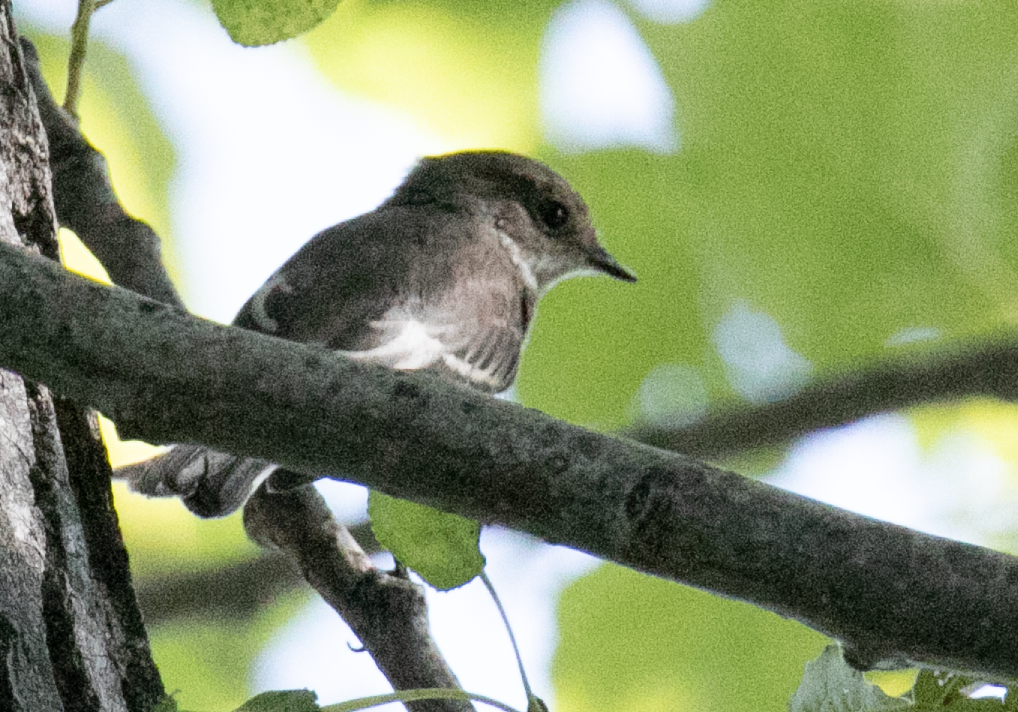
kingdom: Animalia
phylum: Chordata
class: Aves
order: Passeriformes
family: Muscicapidae
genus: Ficedula
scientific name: Ficedula hypoleuca
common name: European pied flycatcher
